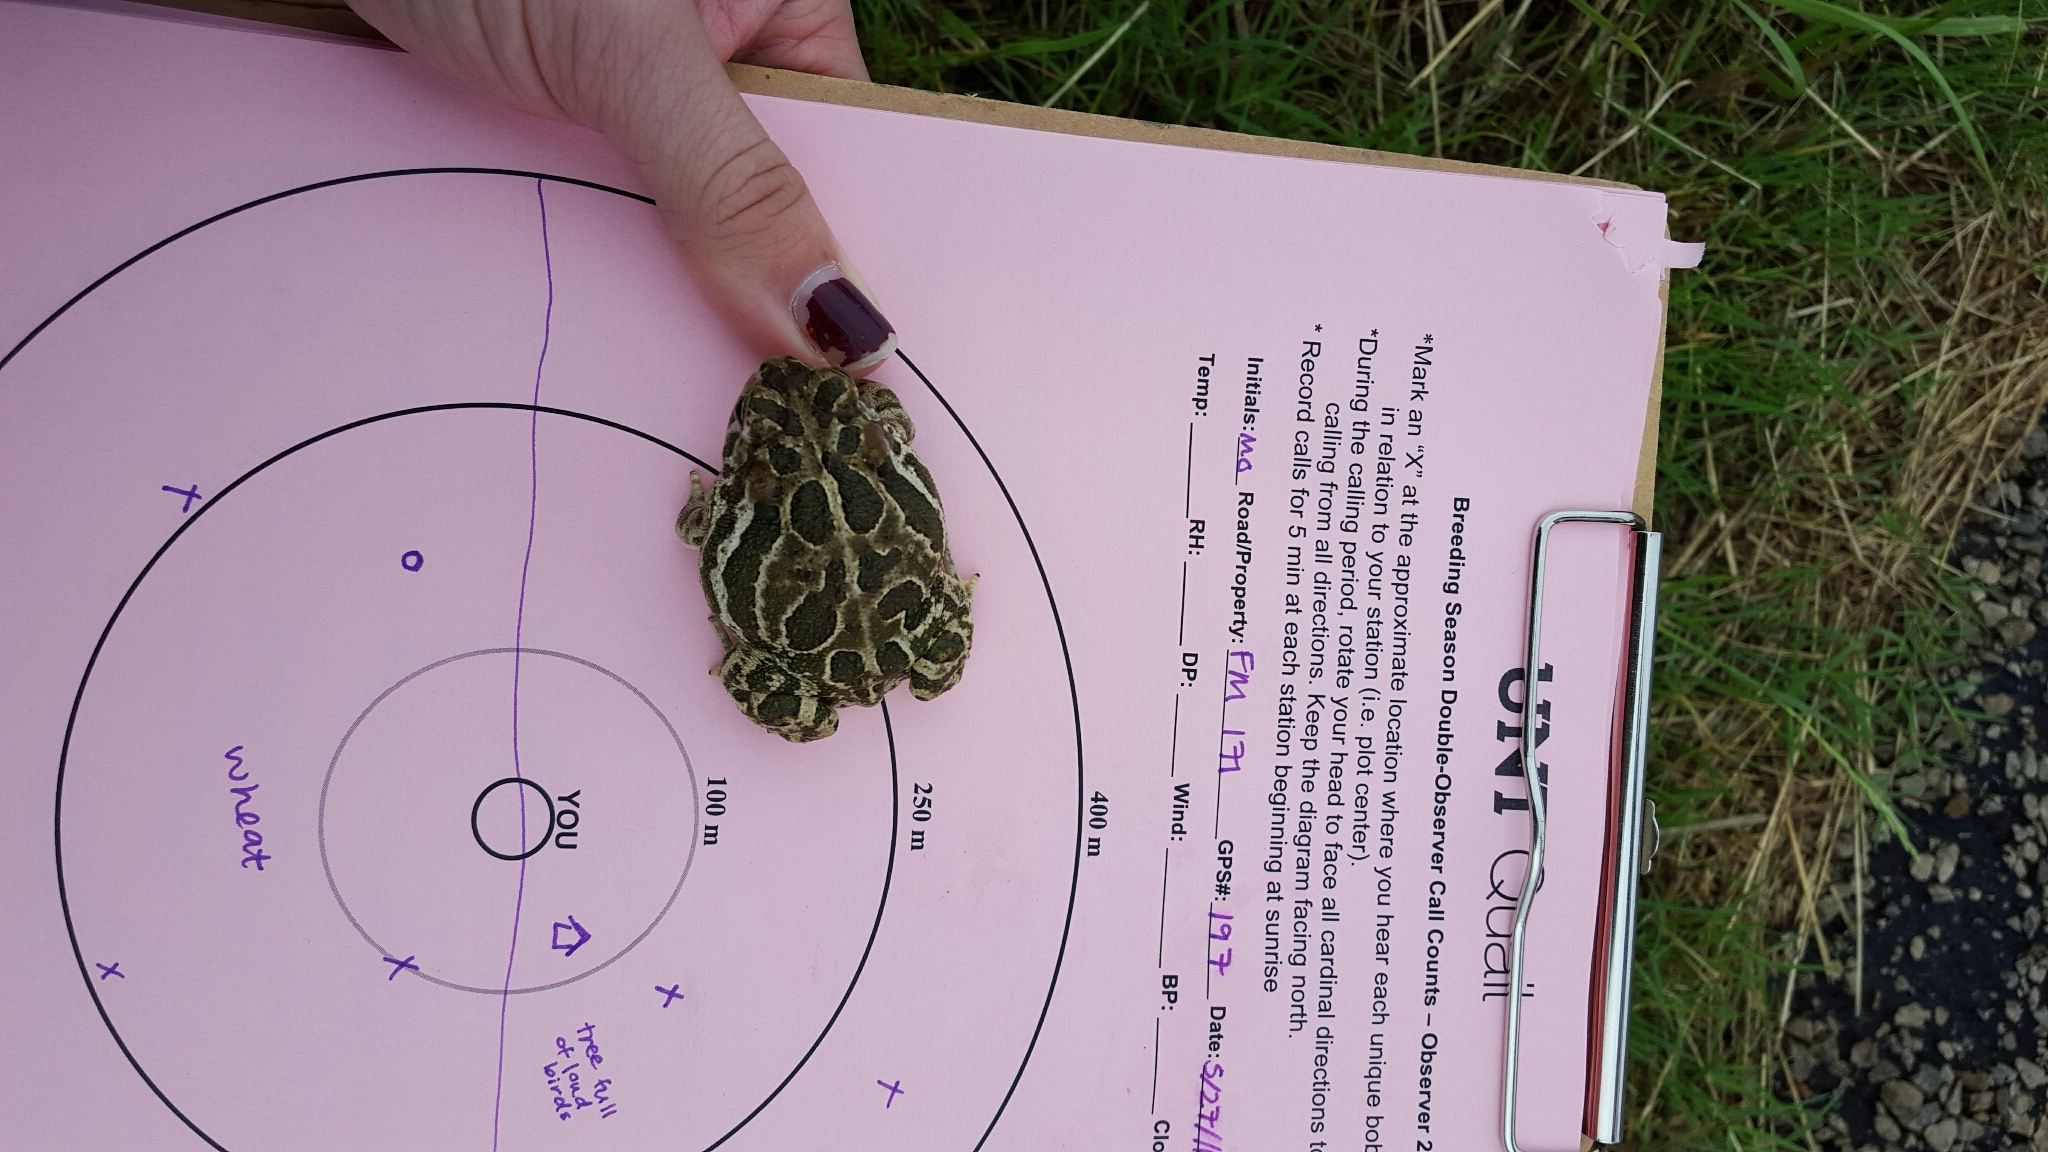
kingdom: Animalia
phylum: Chordata
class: Amphibia
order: Anura
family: Bufonidae
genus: Anaxyrus
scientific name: Anaxyrus cognatus
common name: Great plains toad
